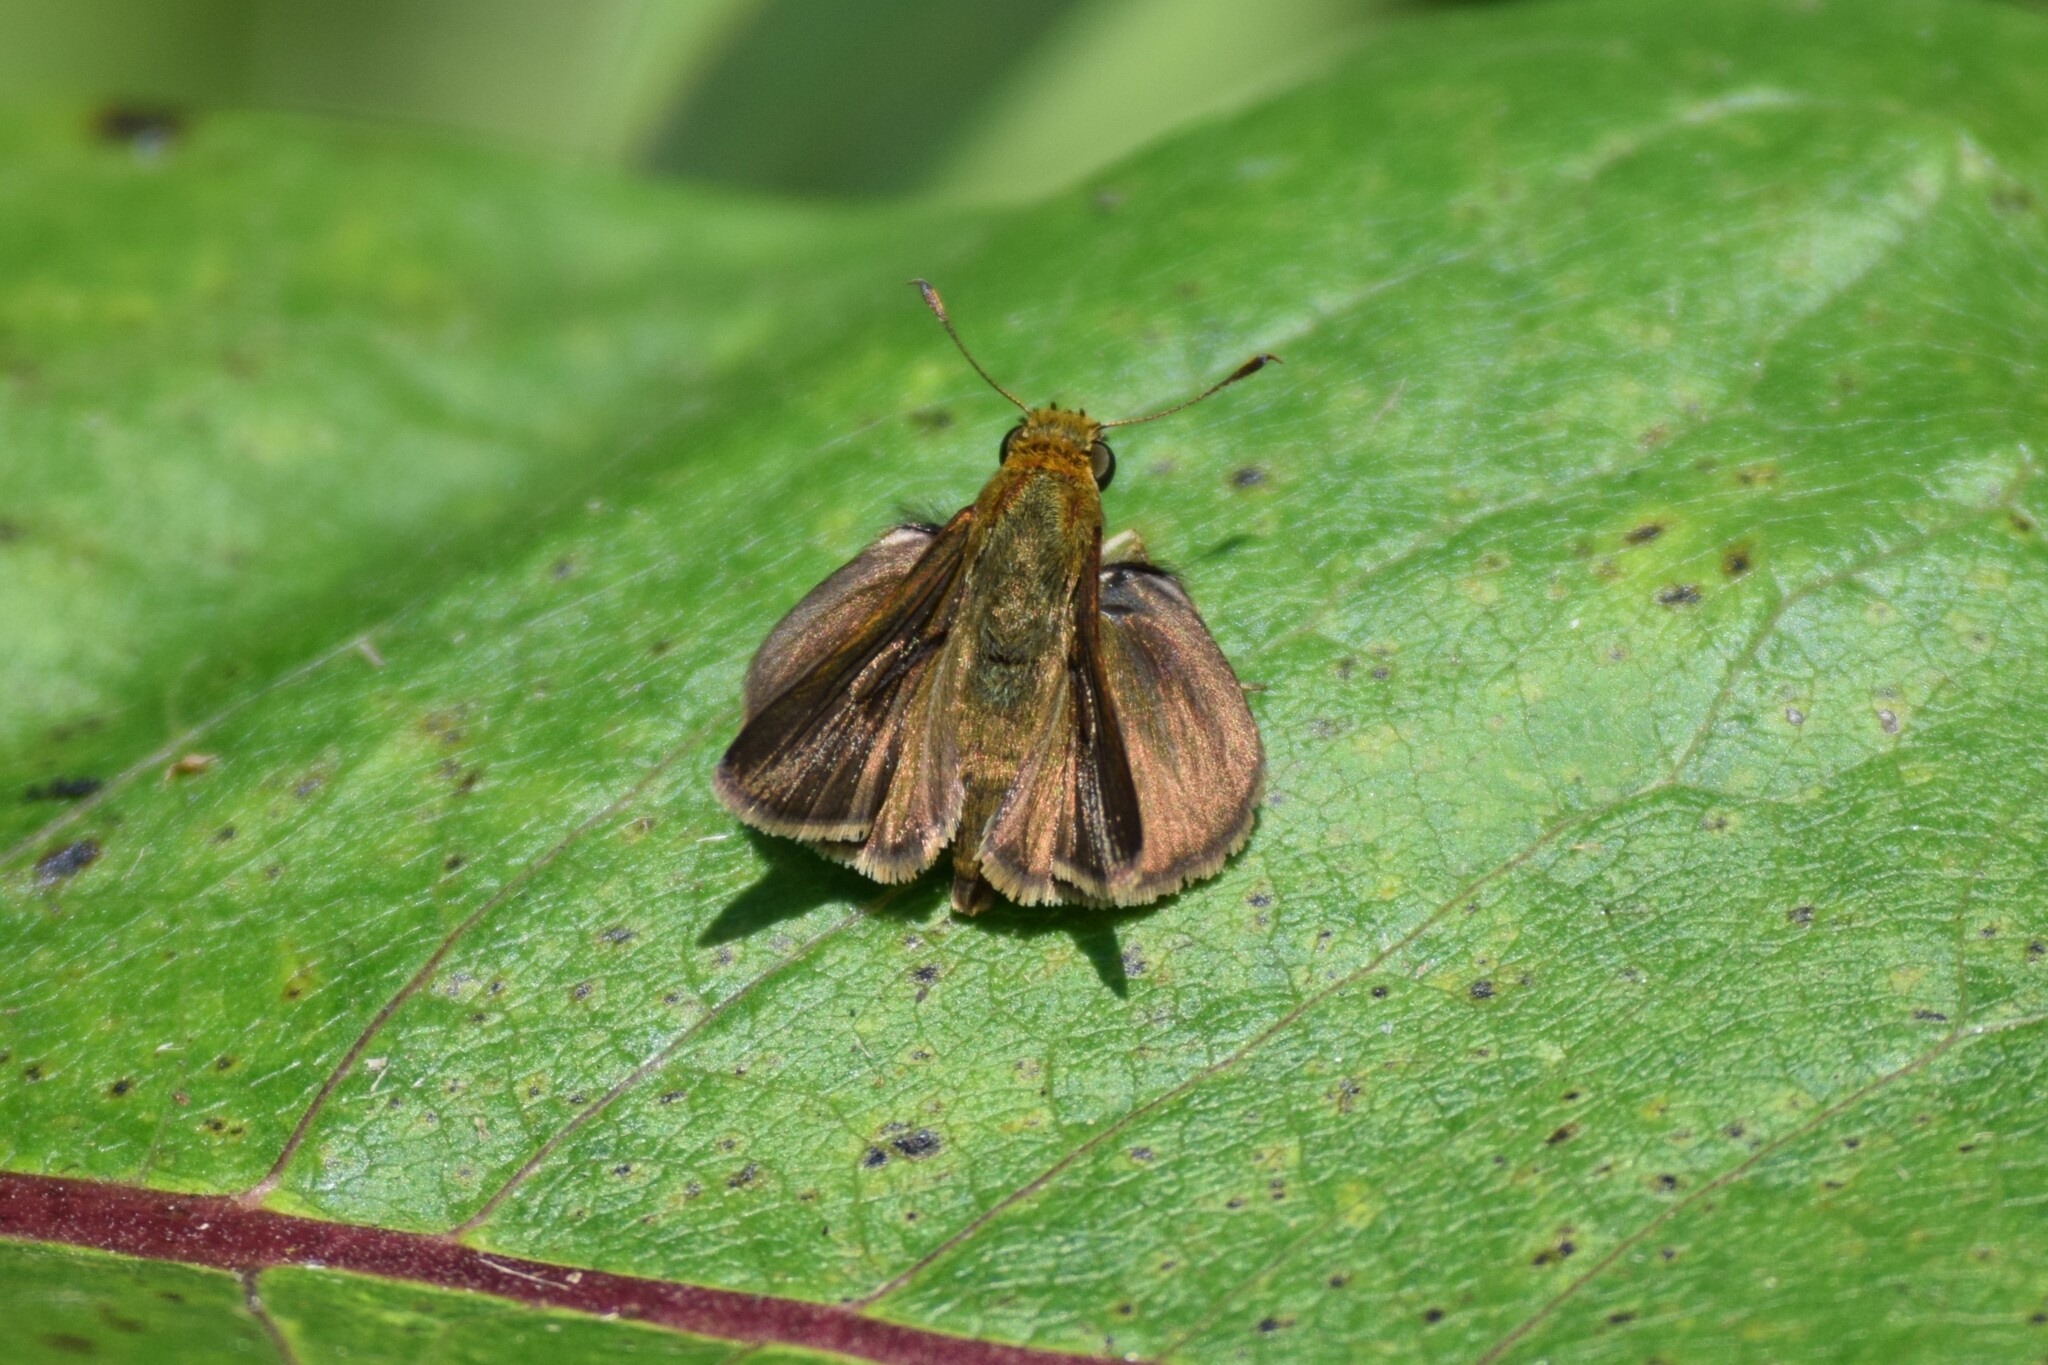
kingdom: Animalia
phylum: Arthropoda
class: Insecta
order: Lepidoptera
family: Hesperiidae
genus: Euphyes
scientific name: Euphyes vestris
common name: Dun skipper
